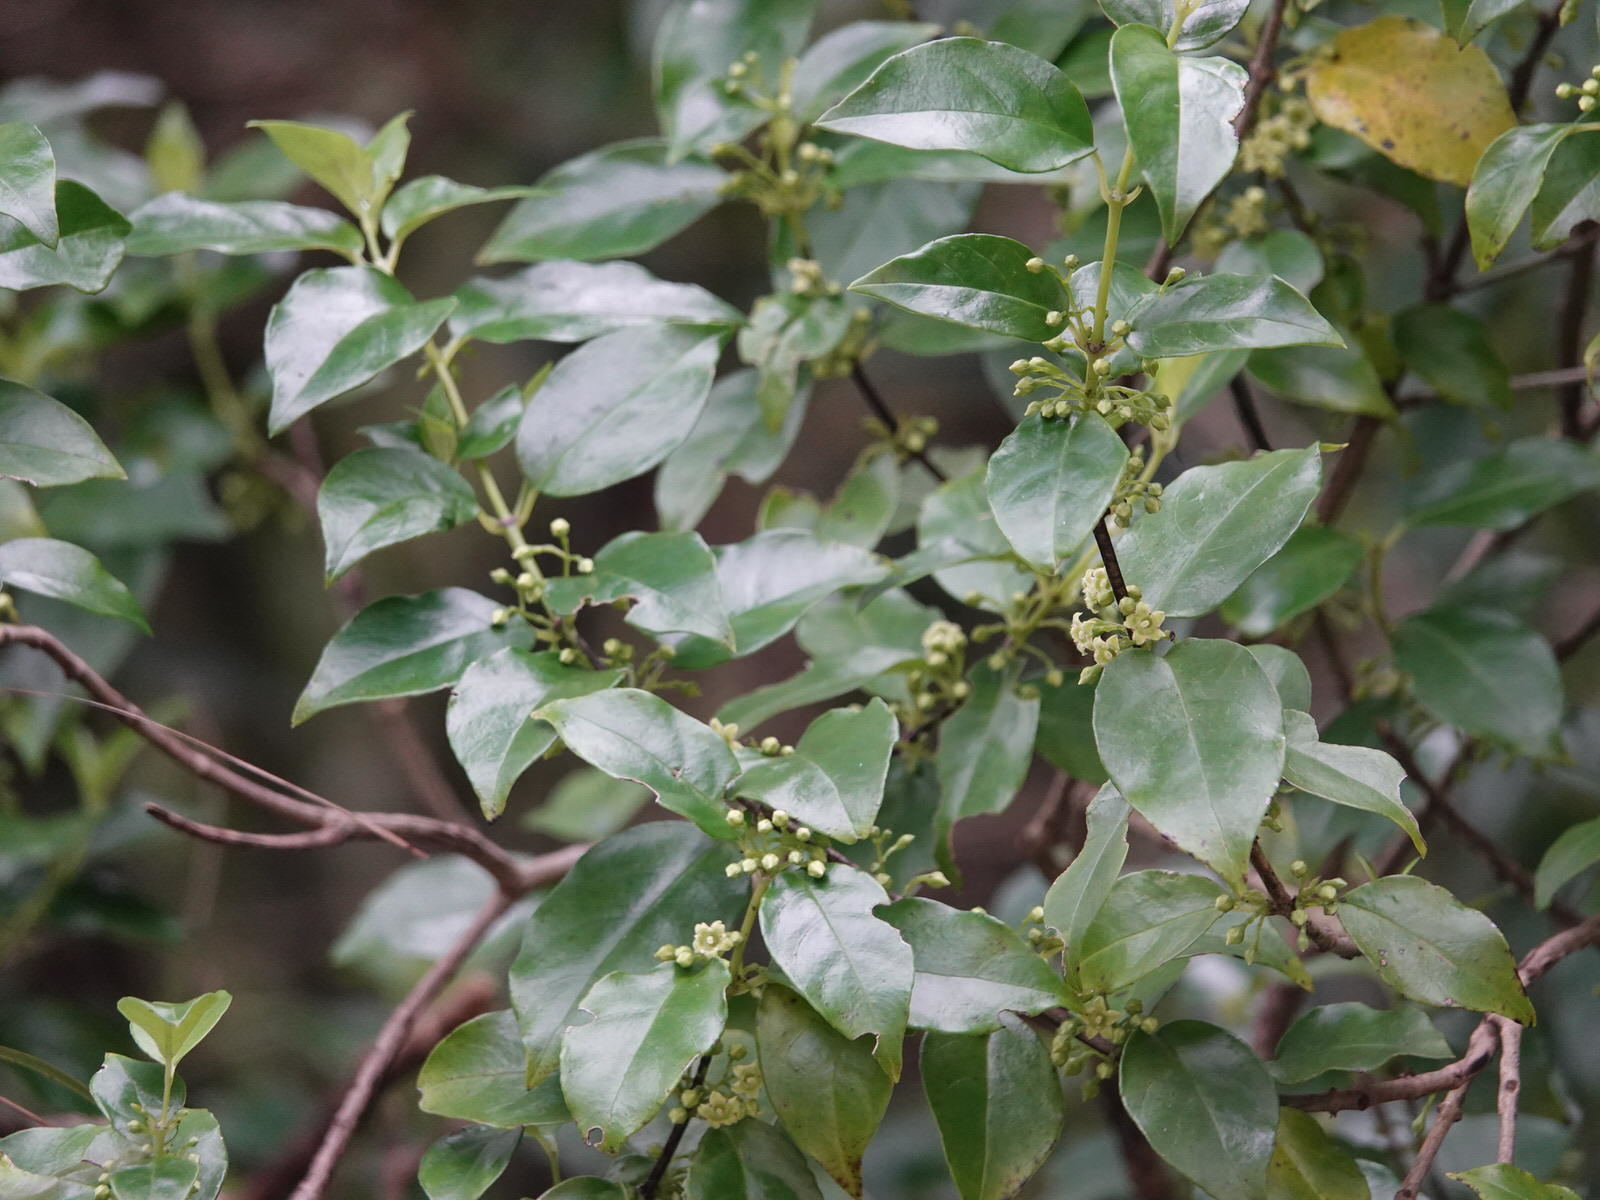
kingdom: Plantae
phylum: Tracheophyta
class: Magnoliopsida
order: Gentianales
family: Loganiaceae
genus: Geniostoma
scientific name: Geniostoma ligustrifolium
